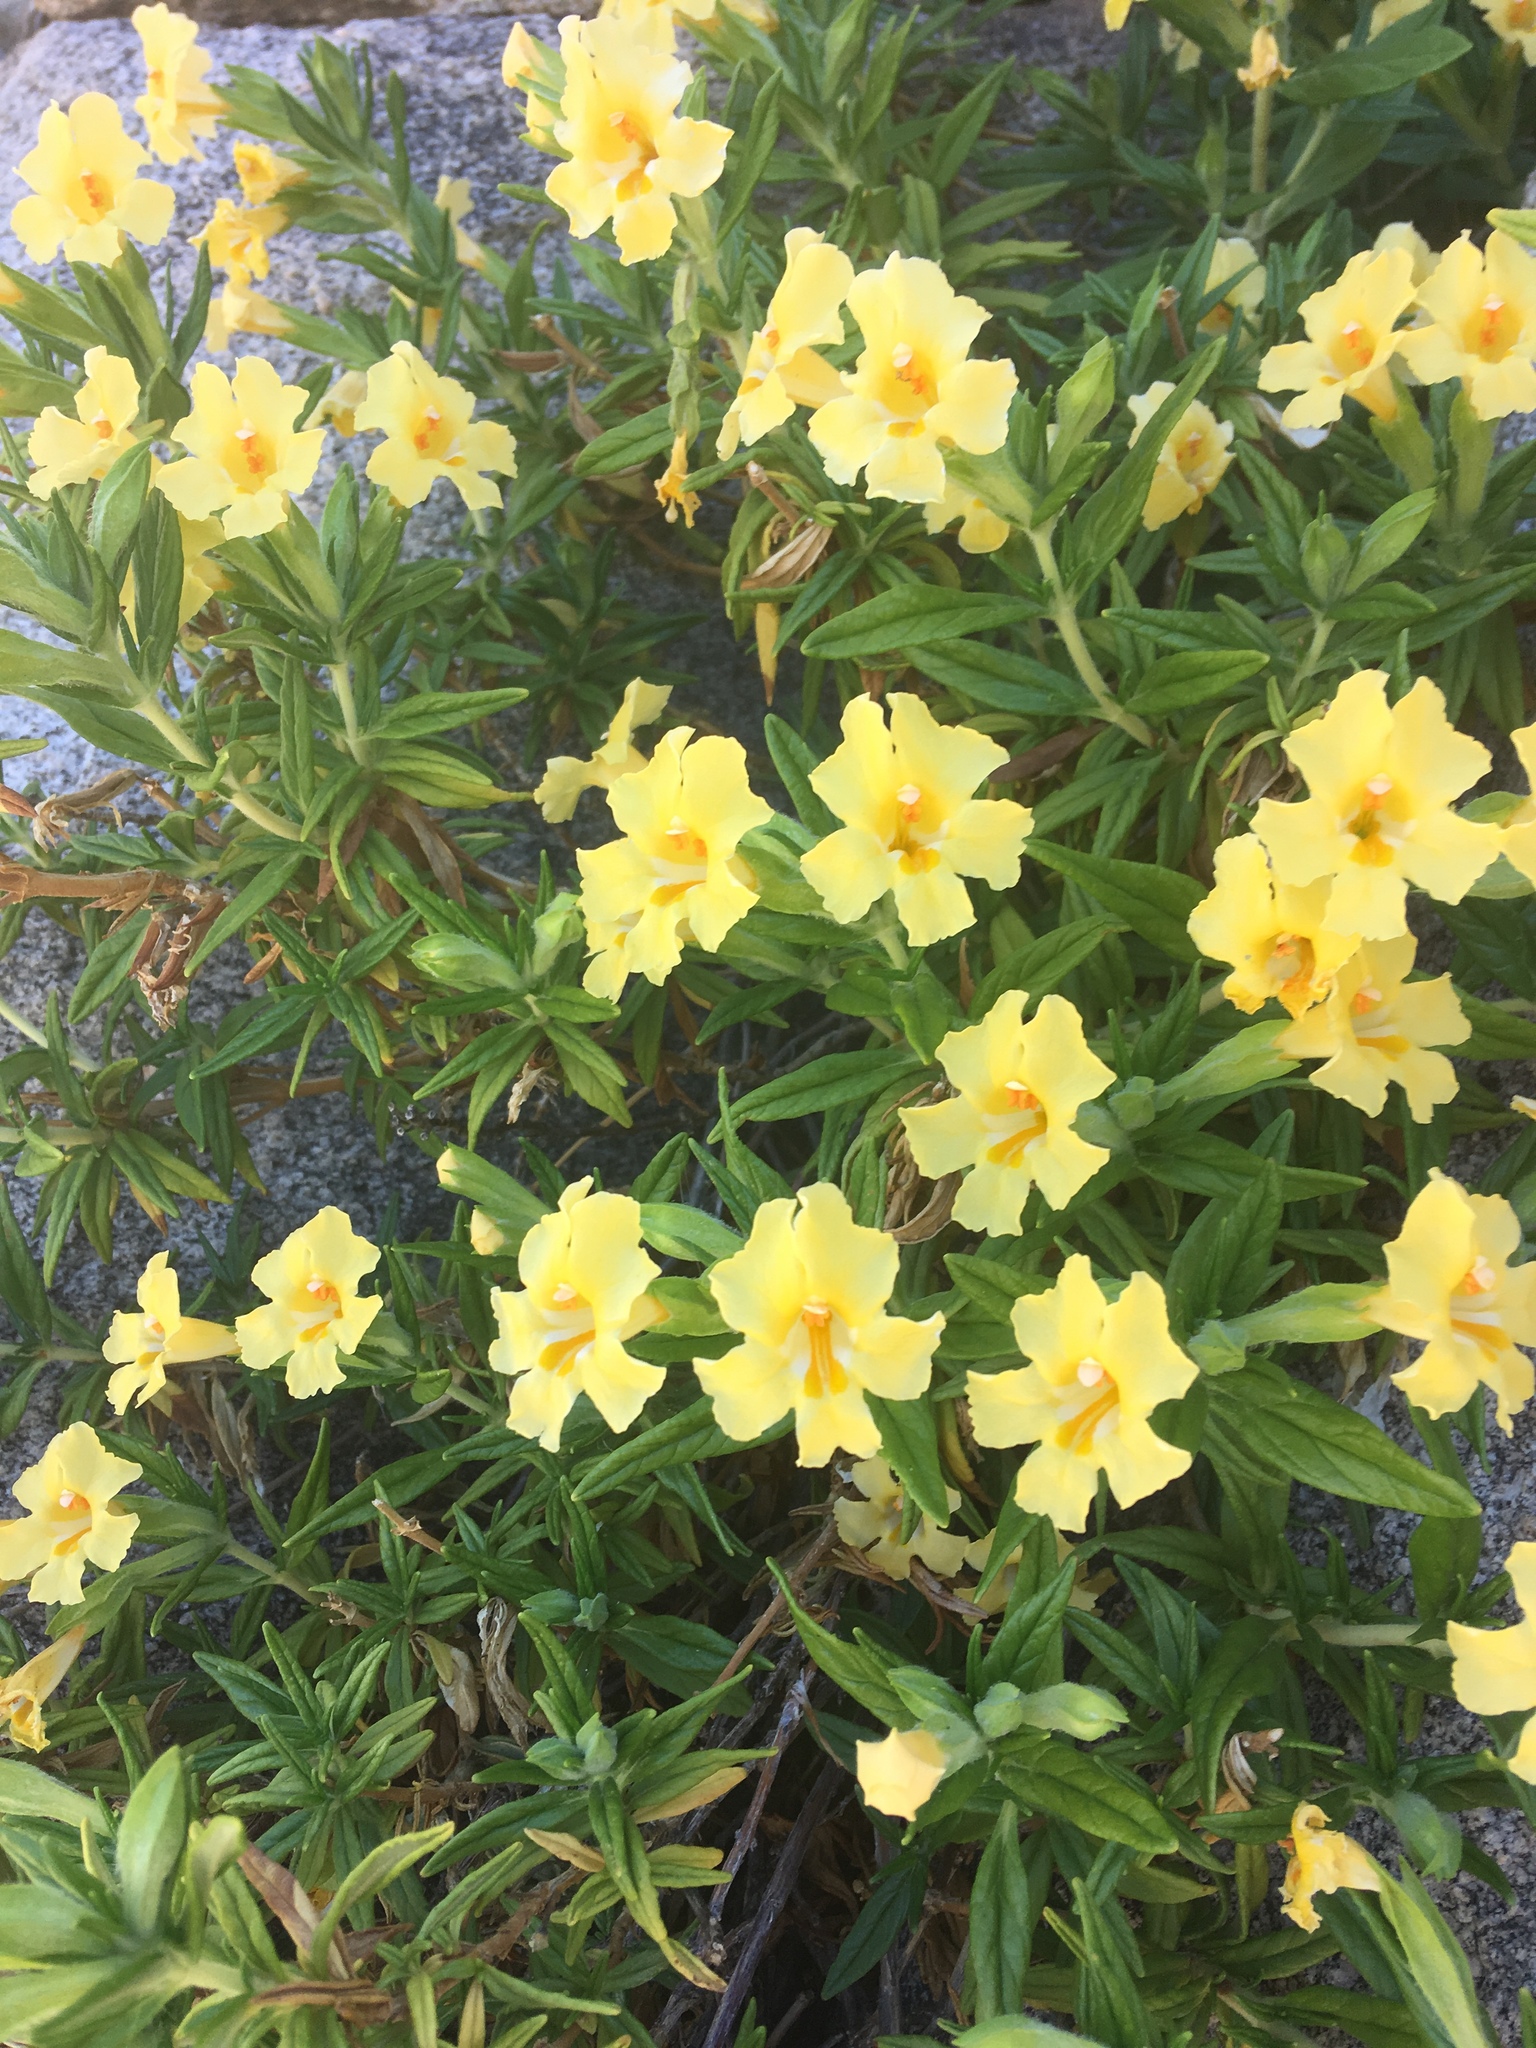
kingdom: Plantae
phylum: Tracheophyta
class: Magnoliopsida
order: Lamiales
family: Phrymaceae
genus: Diplacus
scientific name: Diplacus calycinus
